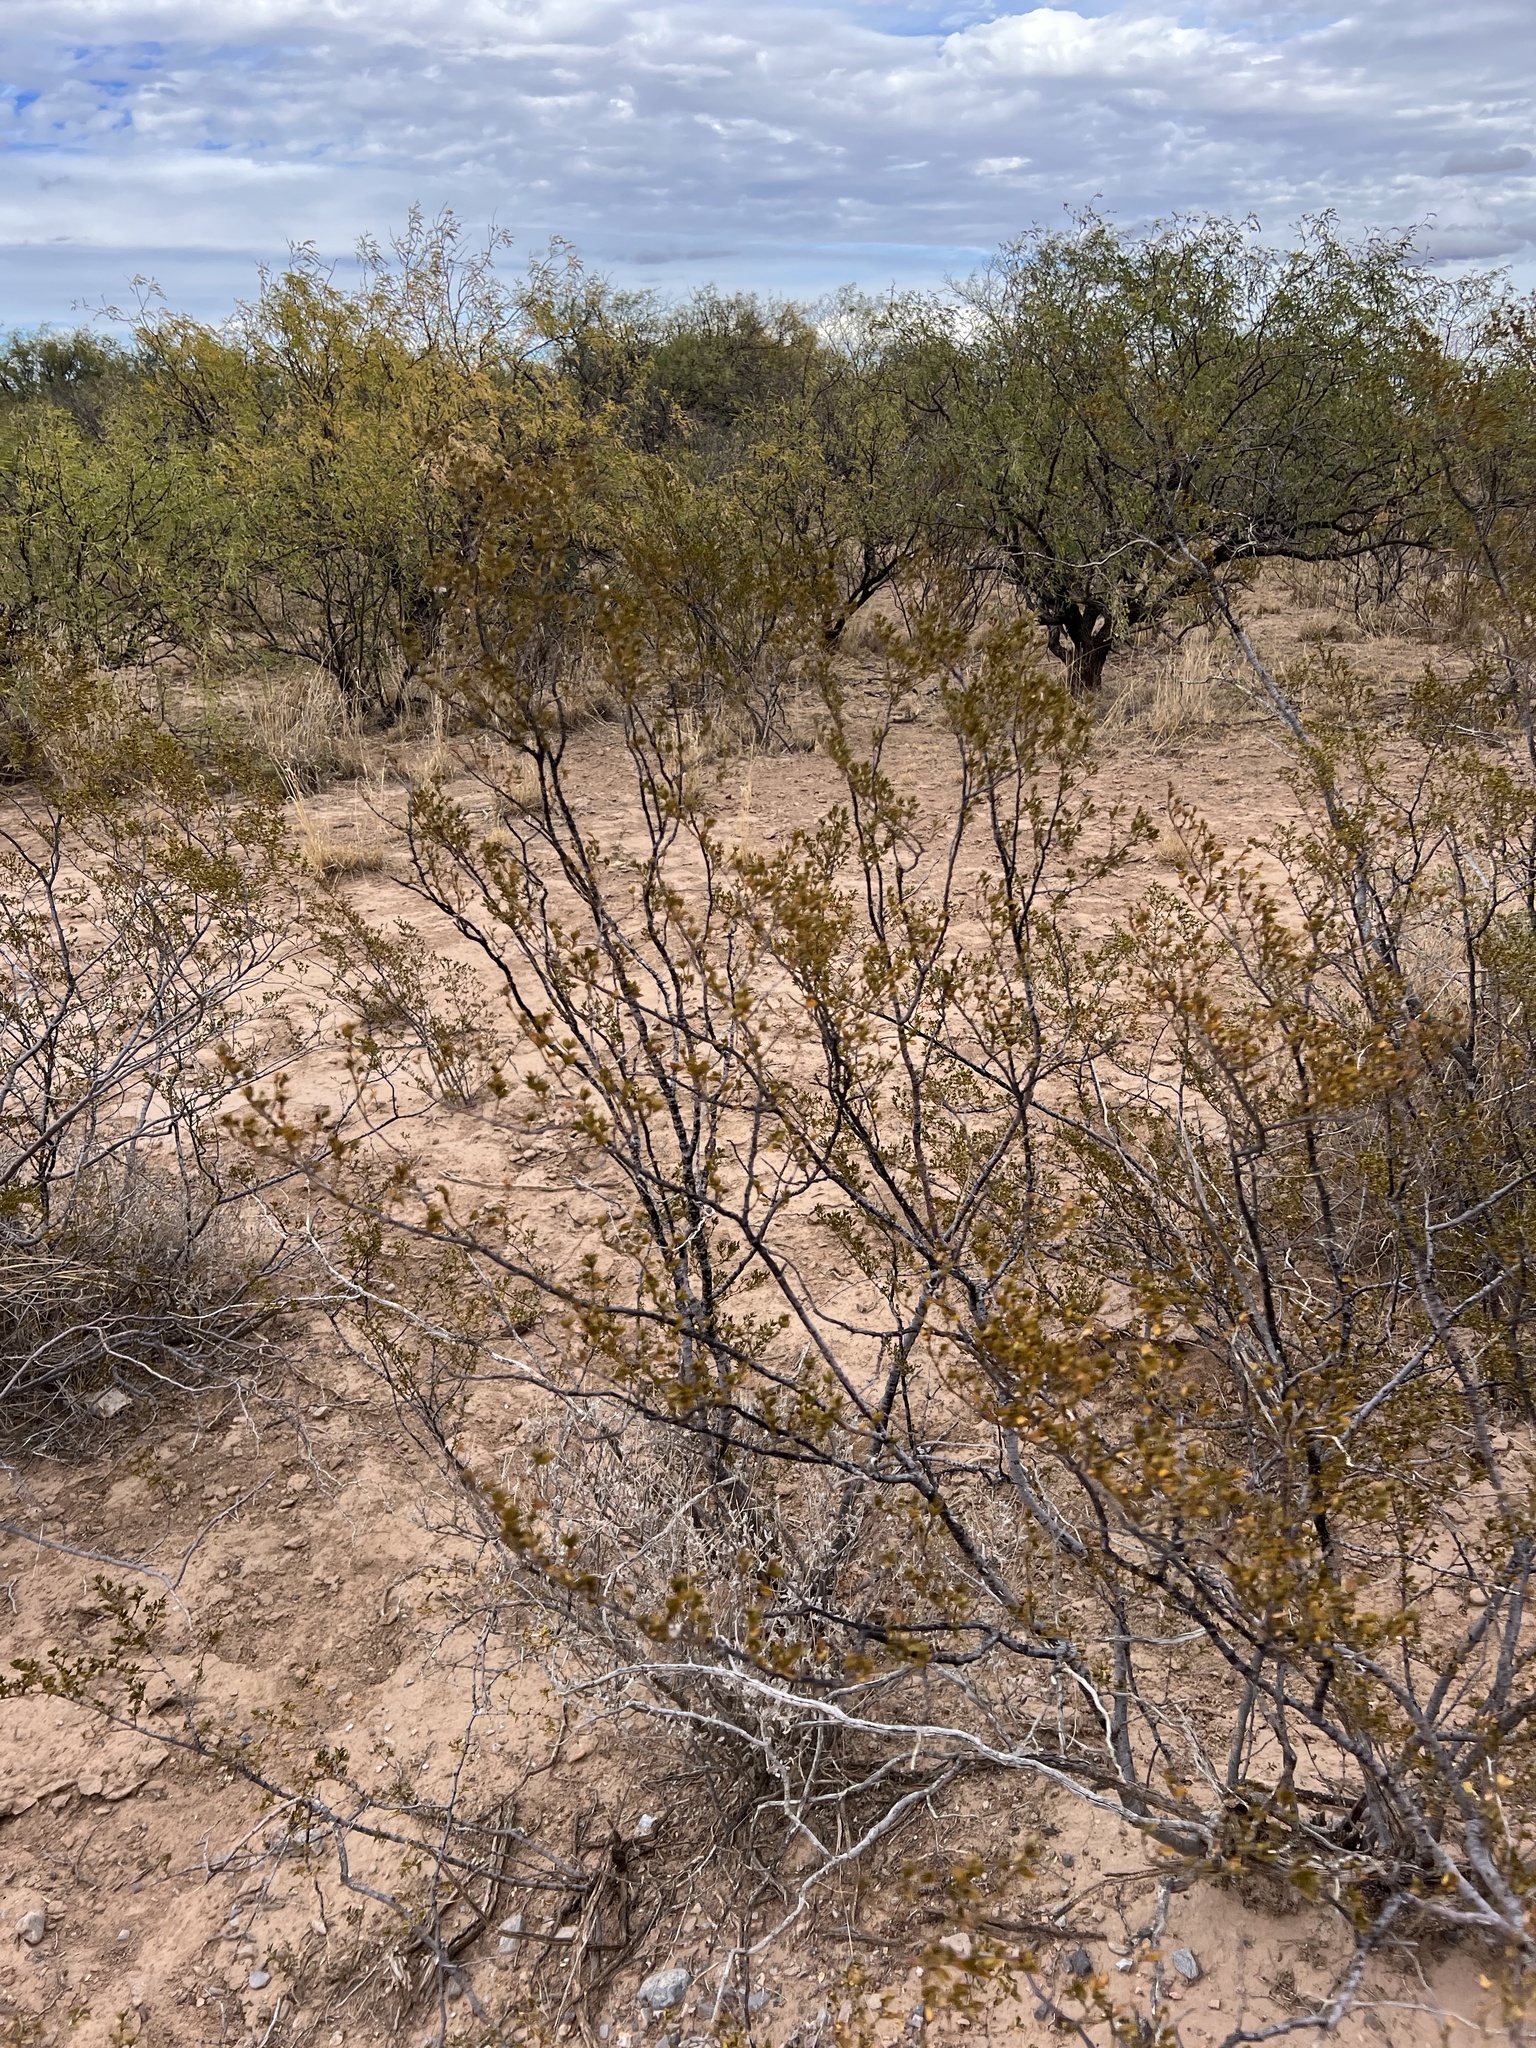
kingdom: Plantae
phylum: Tracheophyta
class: Magnoliopsida
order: Zygophyllales
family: Zygophyllaceae
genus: Larrea
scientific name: Larrea tridentata
